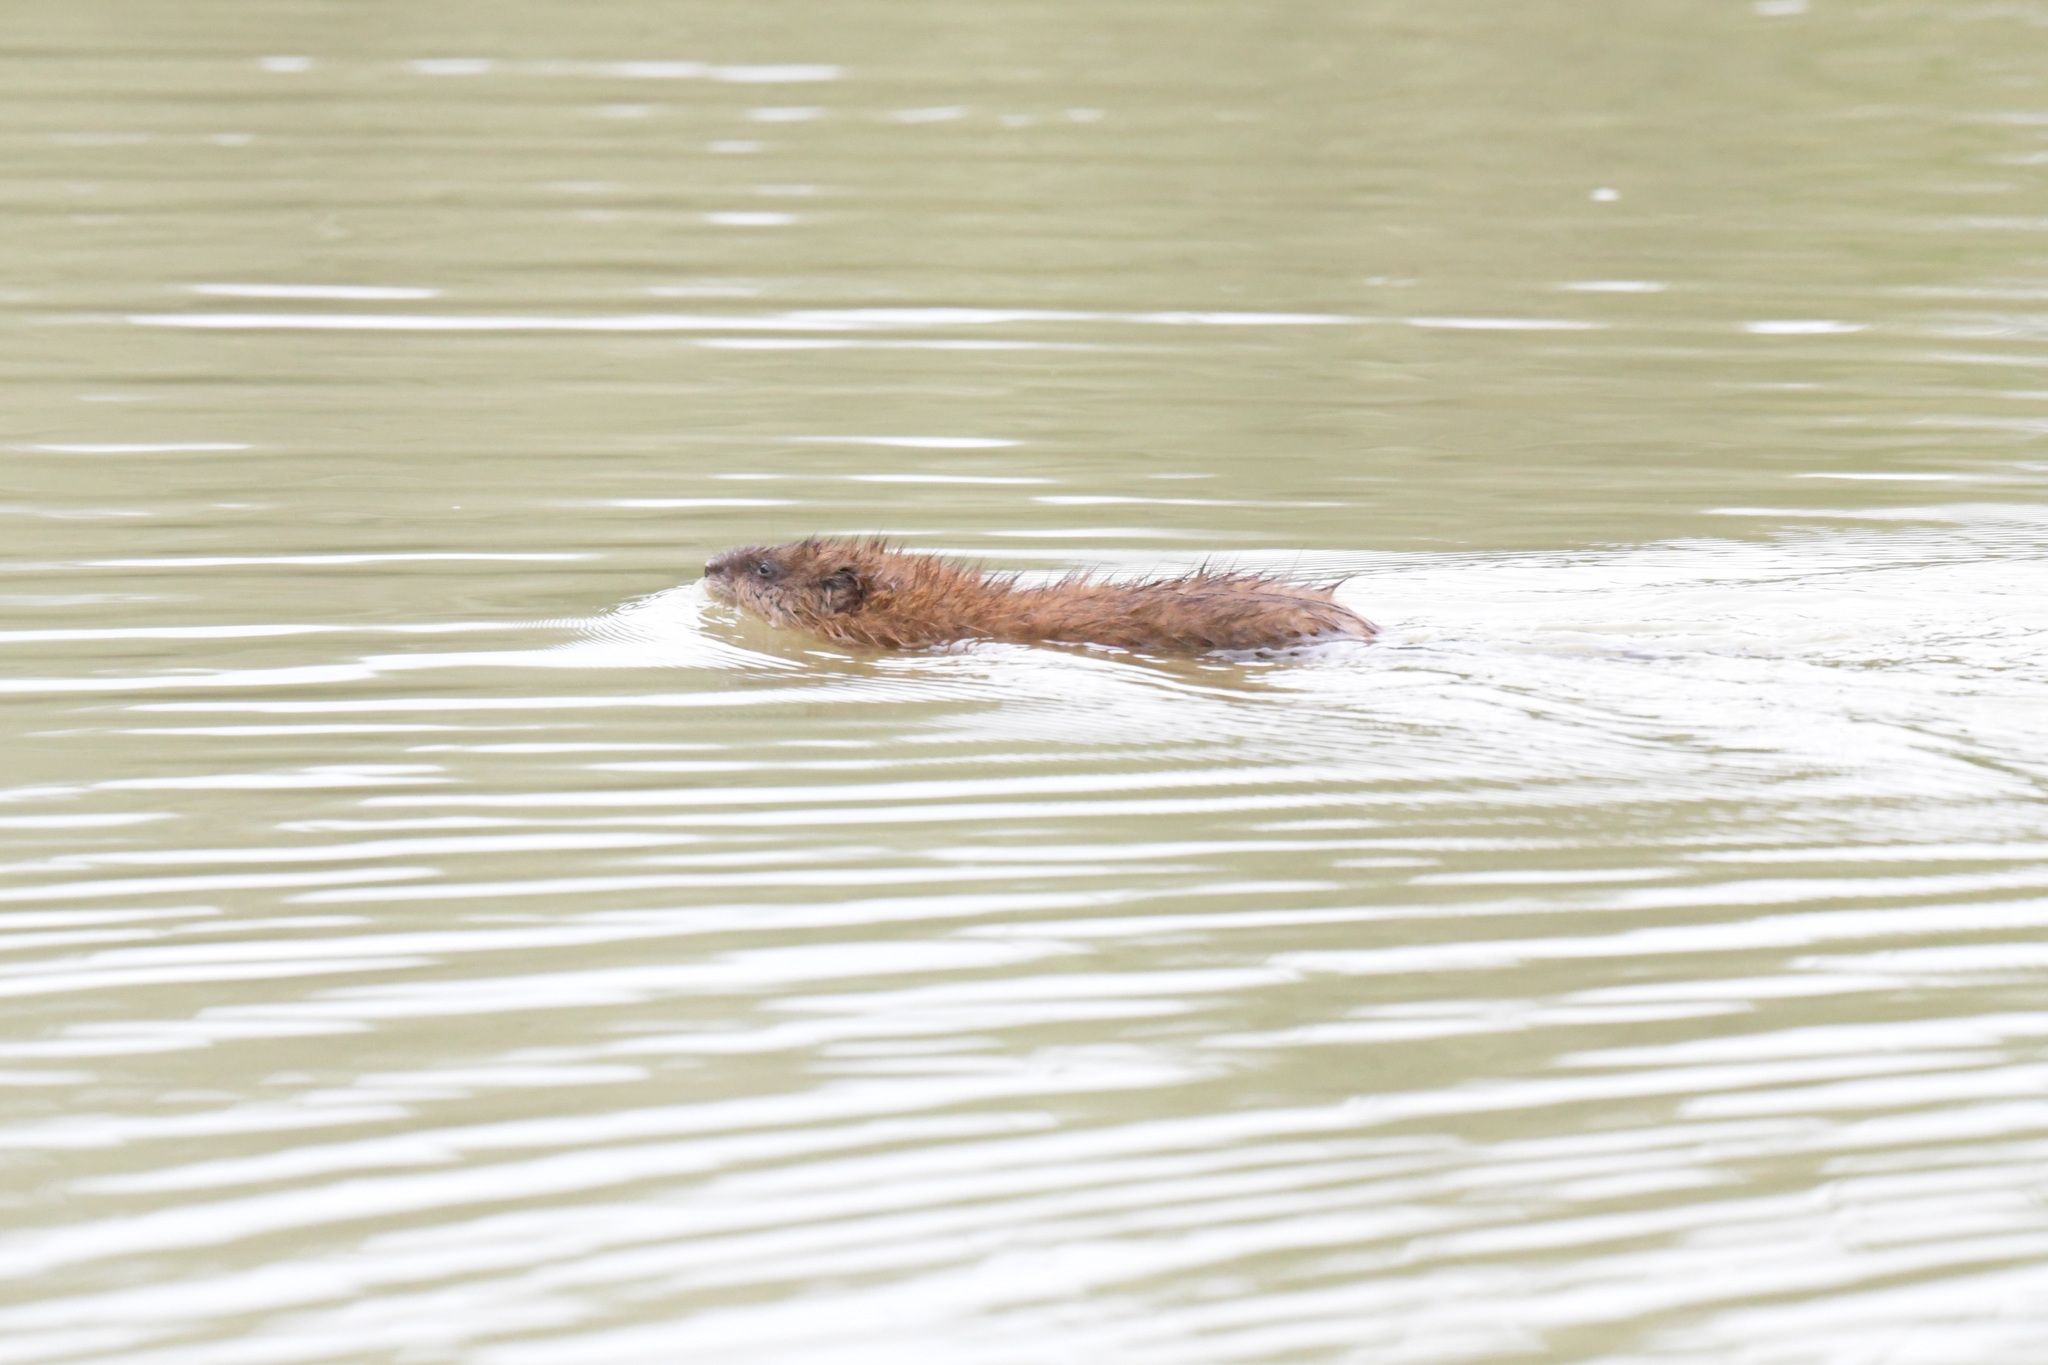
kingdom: Animalia
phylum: Chordata
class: Mammalia
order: Rodentia
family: Cricetidae
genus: Ondatra
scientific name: Ondatra zibethicus
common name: Muskrat
